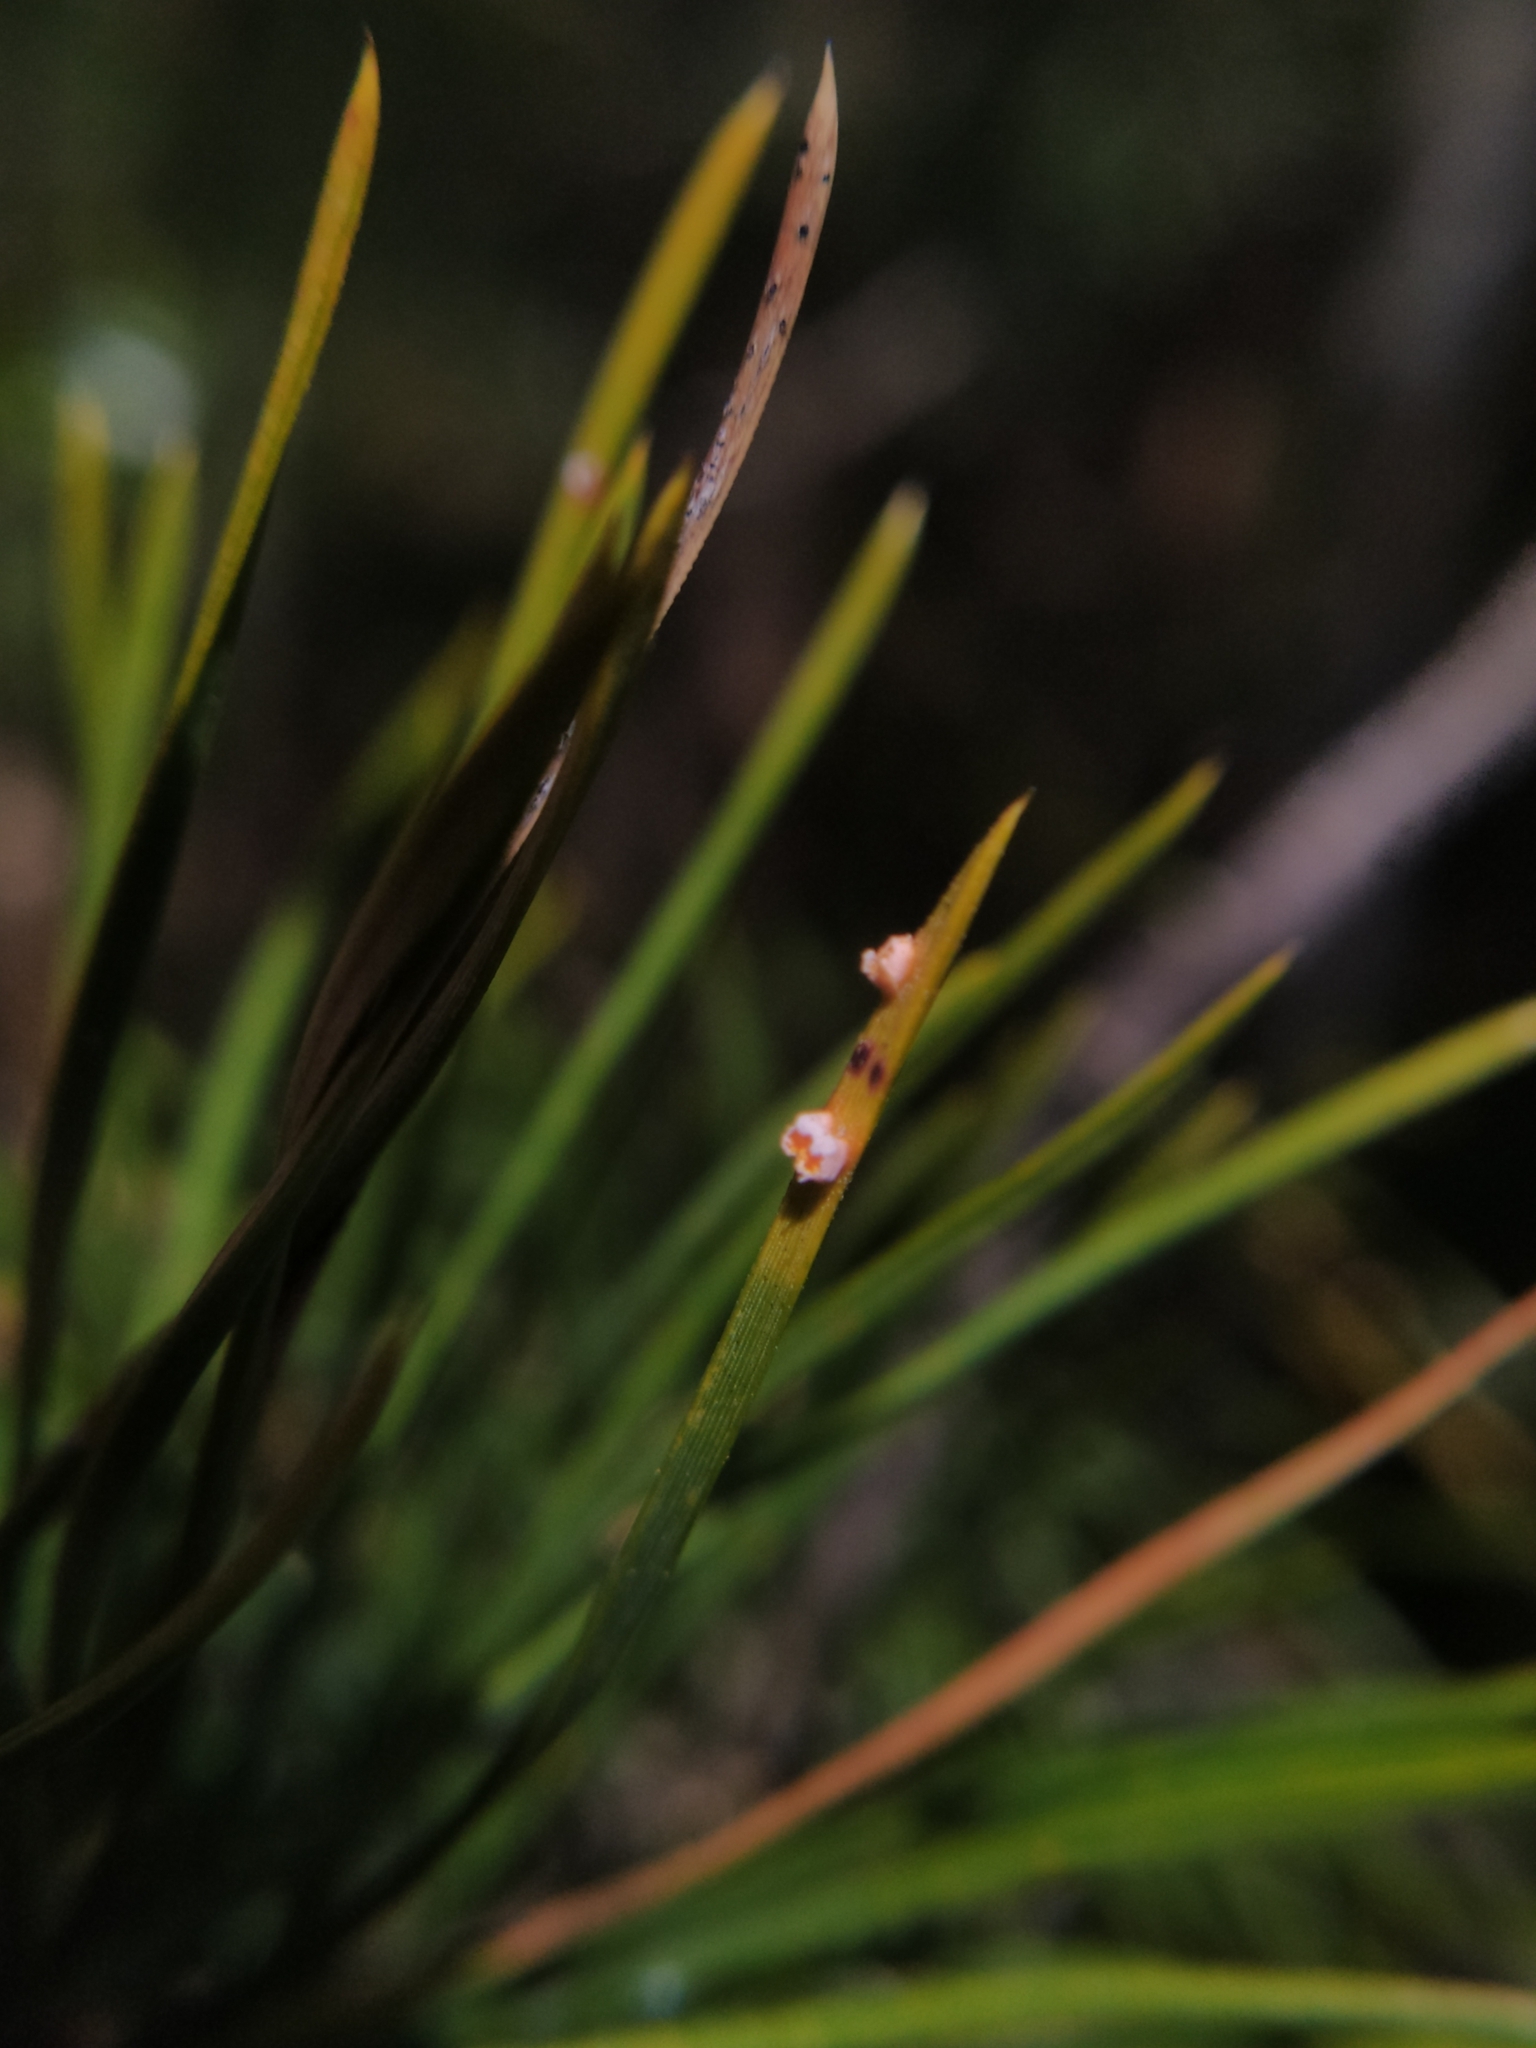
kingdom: Fungi
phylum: Basidiomycota
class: Pucciniomycetes
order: Pucciniales
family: Cronartiaceae
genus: Peridermium
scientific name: Peridermium oblongisporium
